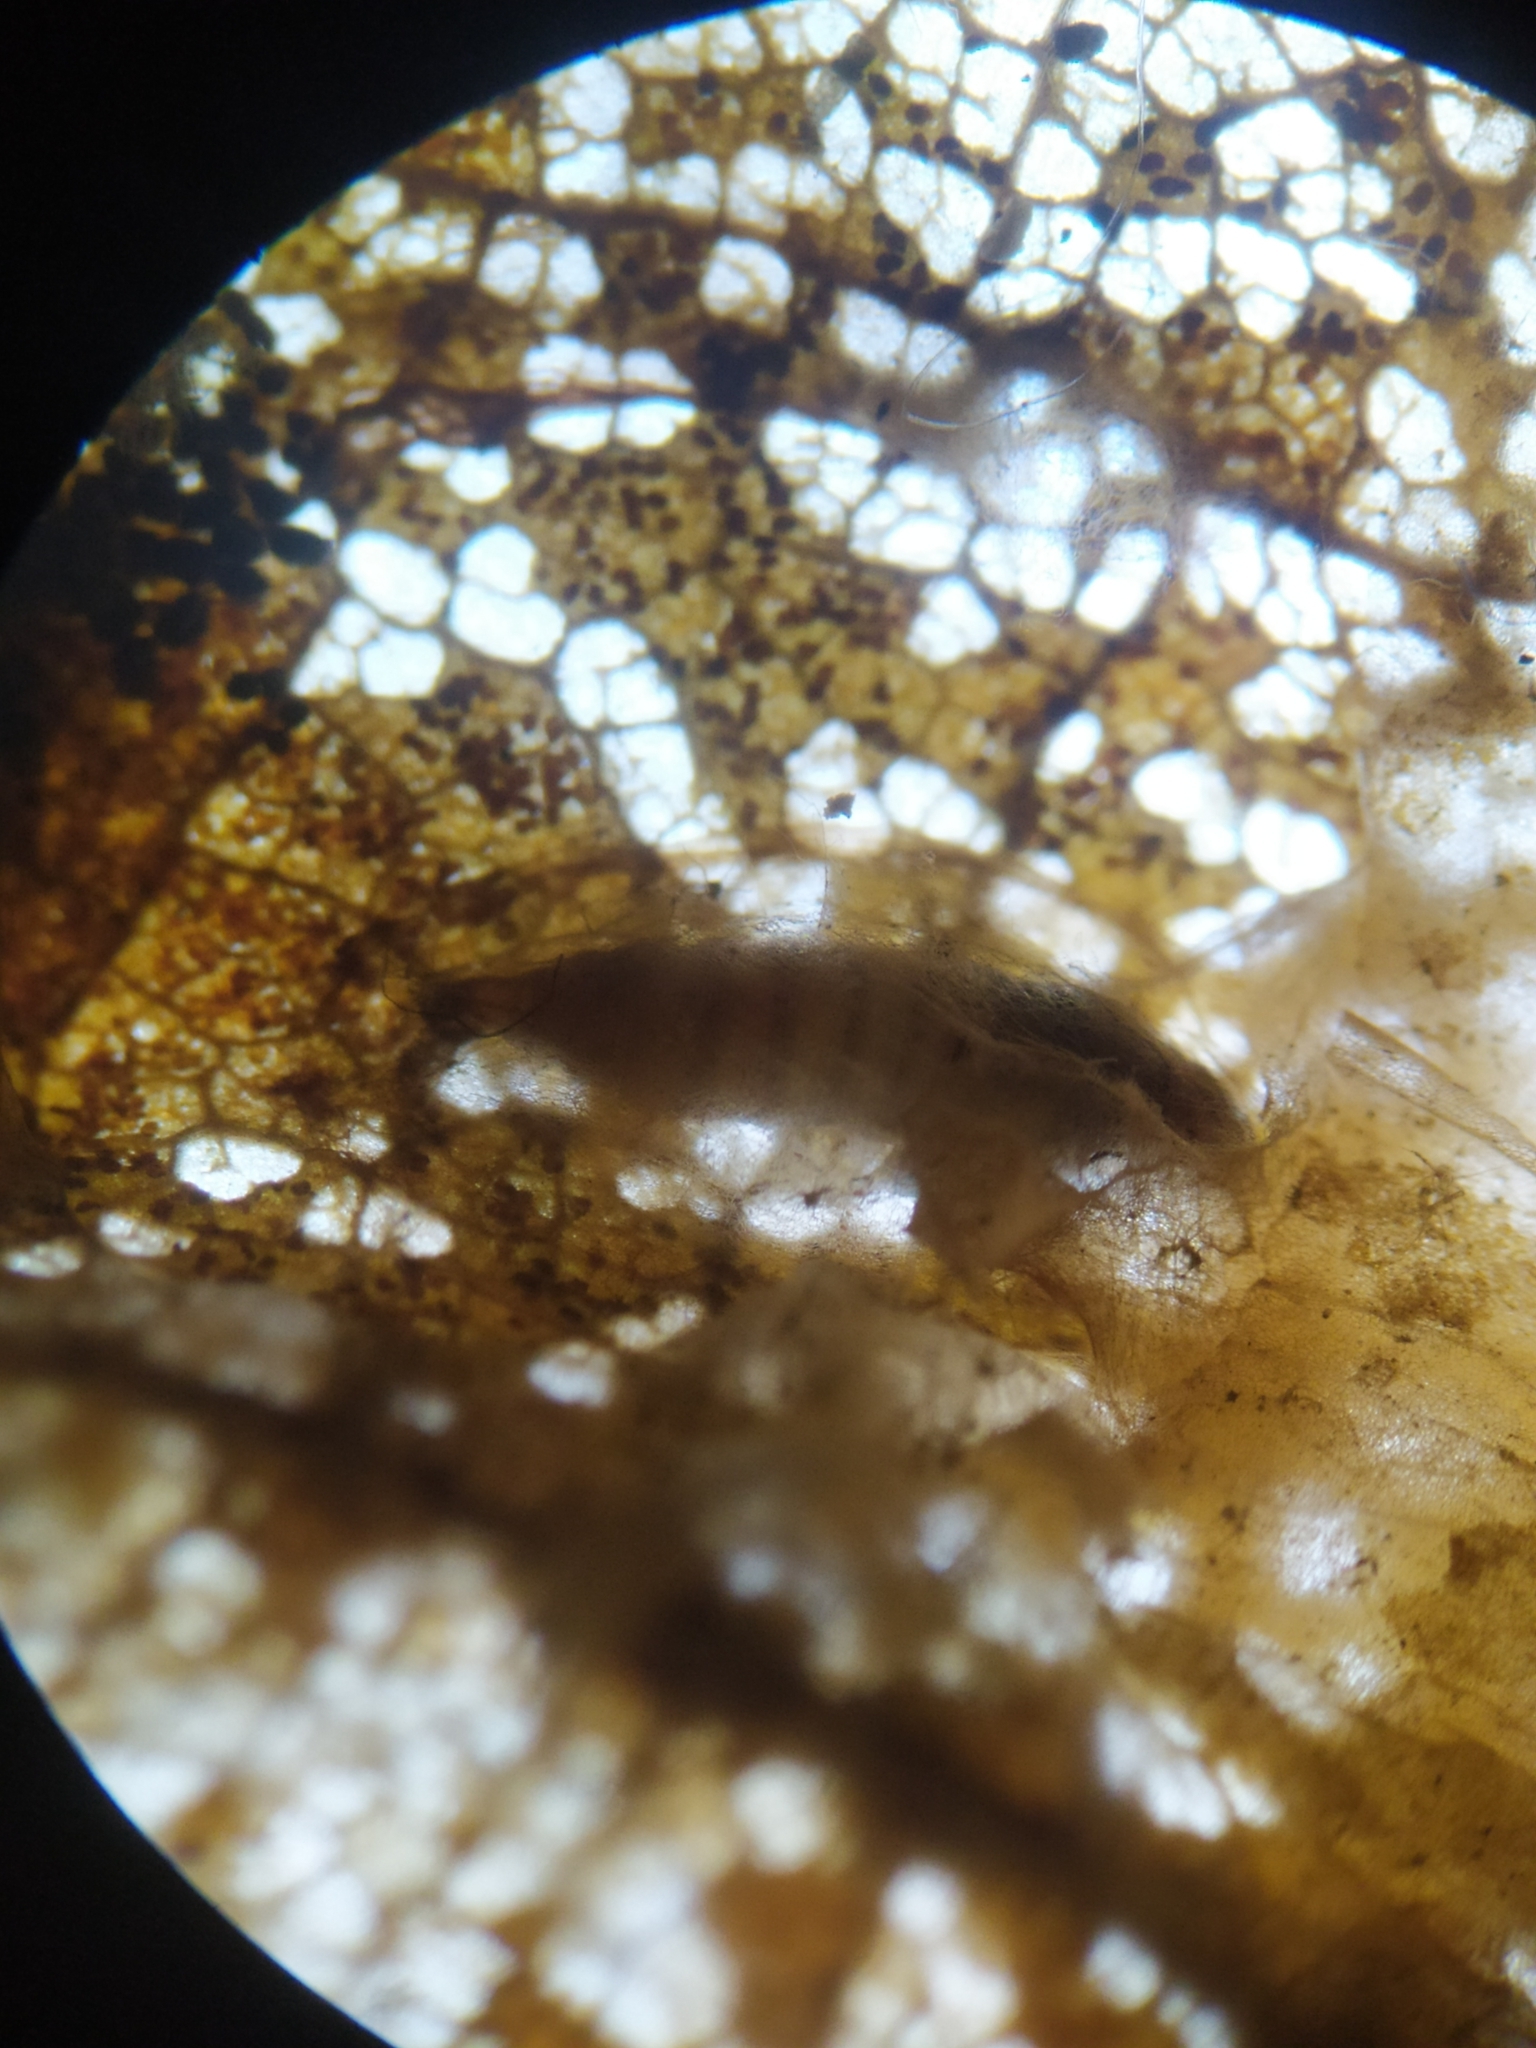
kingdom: Animalia
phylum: Arthropoda
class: Insecta
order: Lepidoptera
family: Gracillariidae
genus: Phyllonorycter
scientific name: Phyllonorycter platani
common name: London midget
